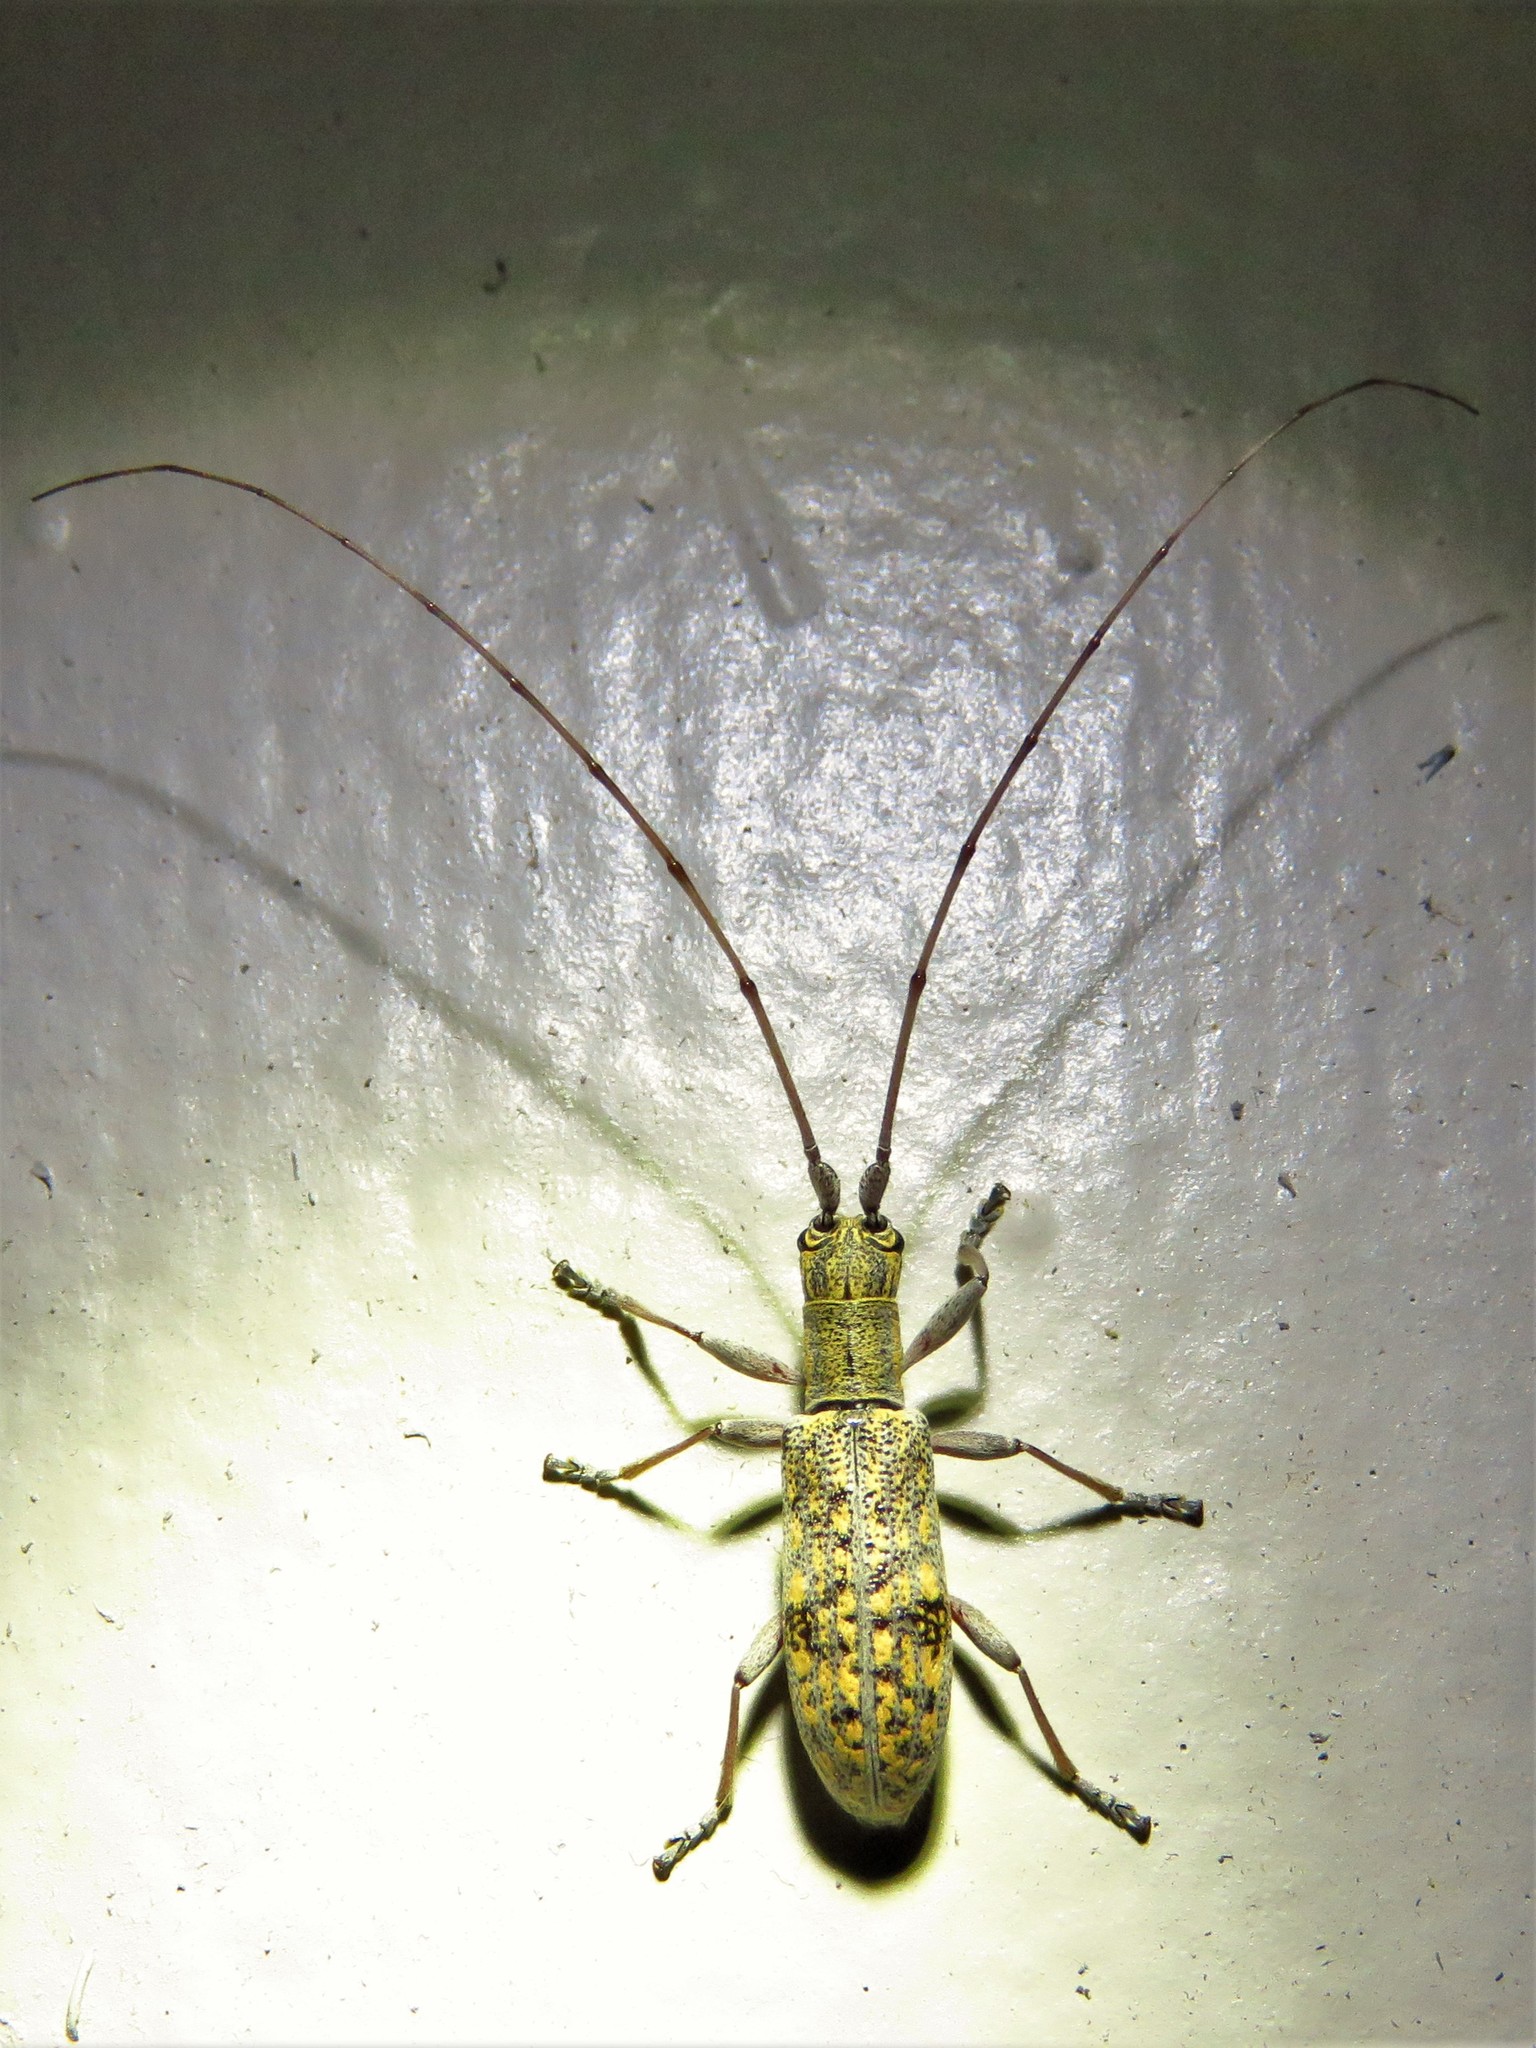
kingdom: Animalia
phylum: Arthropoda
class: Insecta
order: Coleoptera
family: Cerambycidae
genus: Dorcaschema
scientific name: Dorcaschema alternatum
